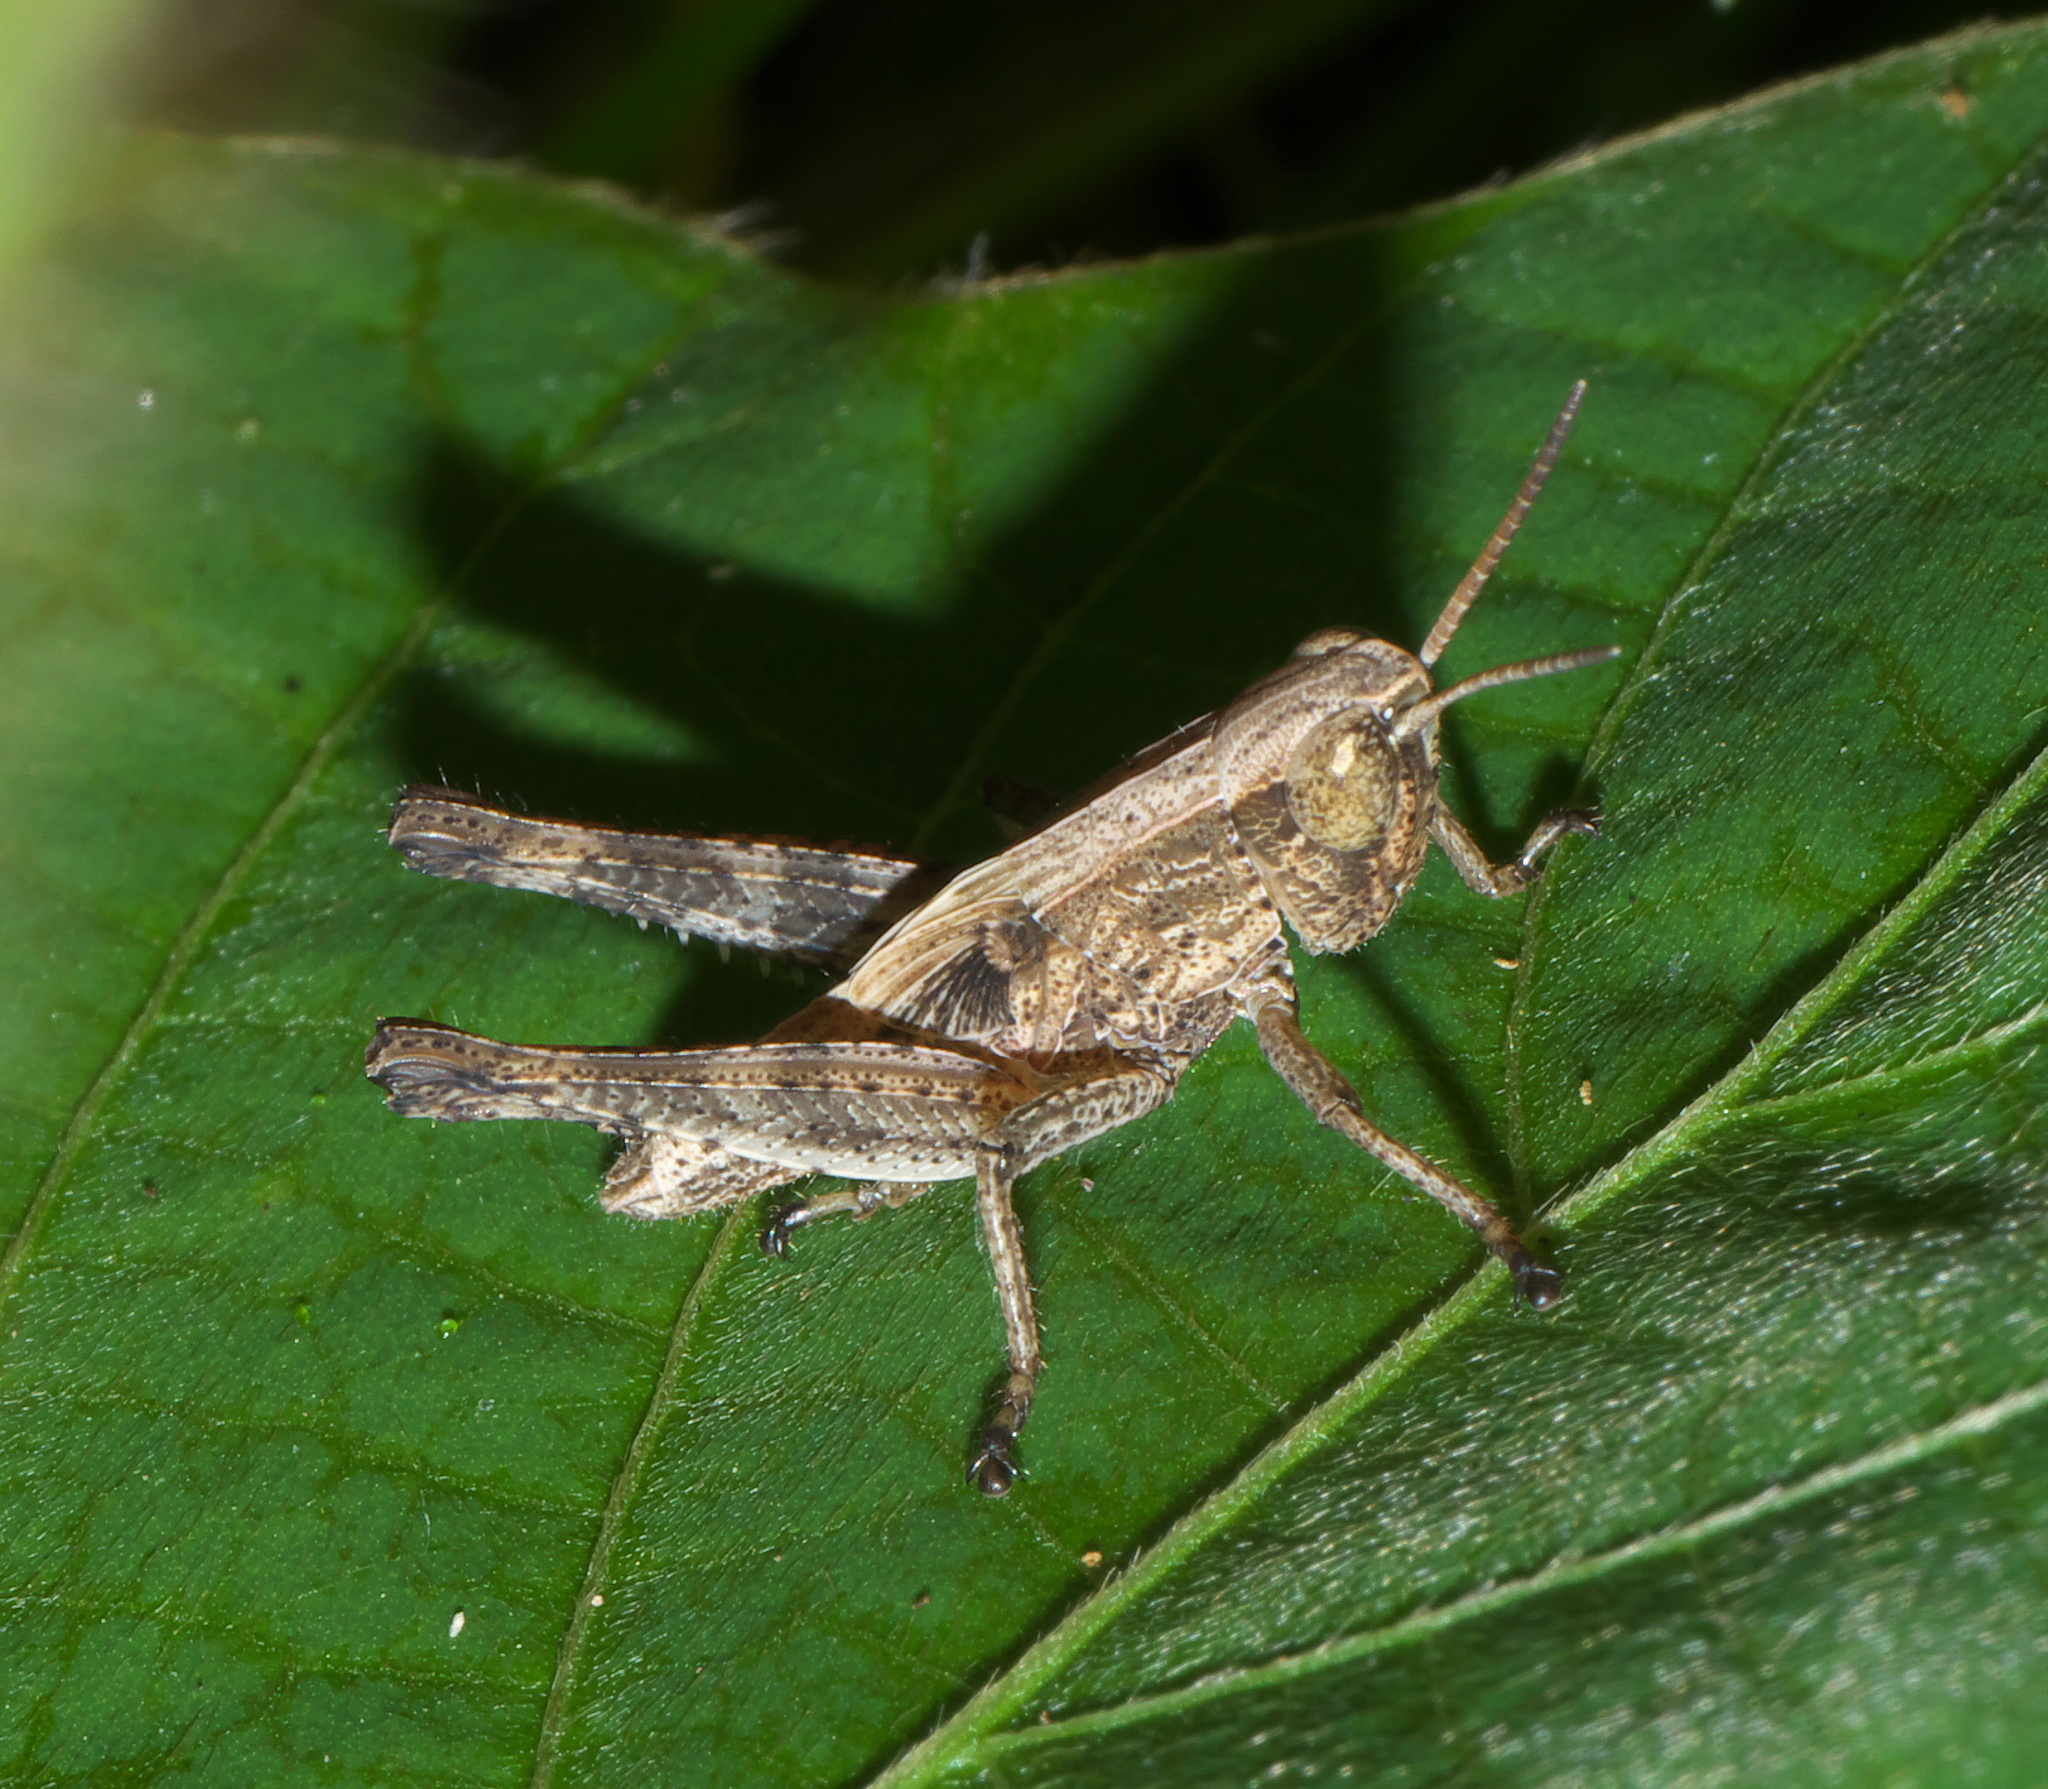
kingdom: Animalia
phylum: Arthropoda
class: Insecta
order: Orthoptera
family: Acrididae
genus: Dichromorpha
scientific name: Dichromorpha viridis
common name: Short-winged green grasshopper
